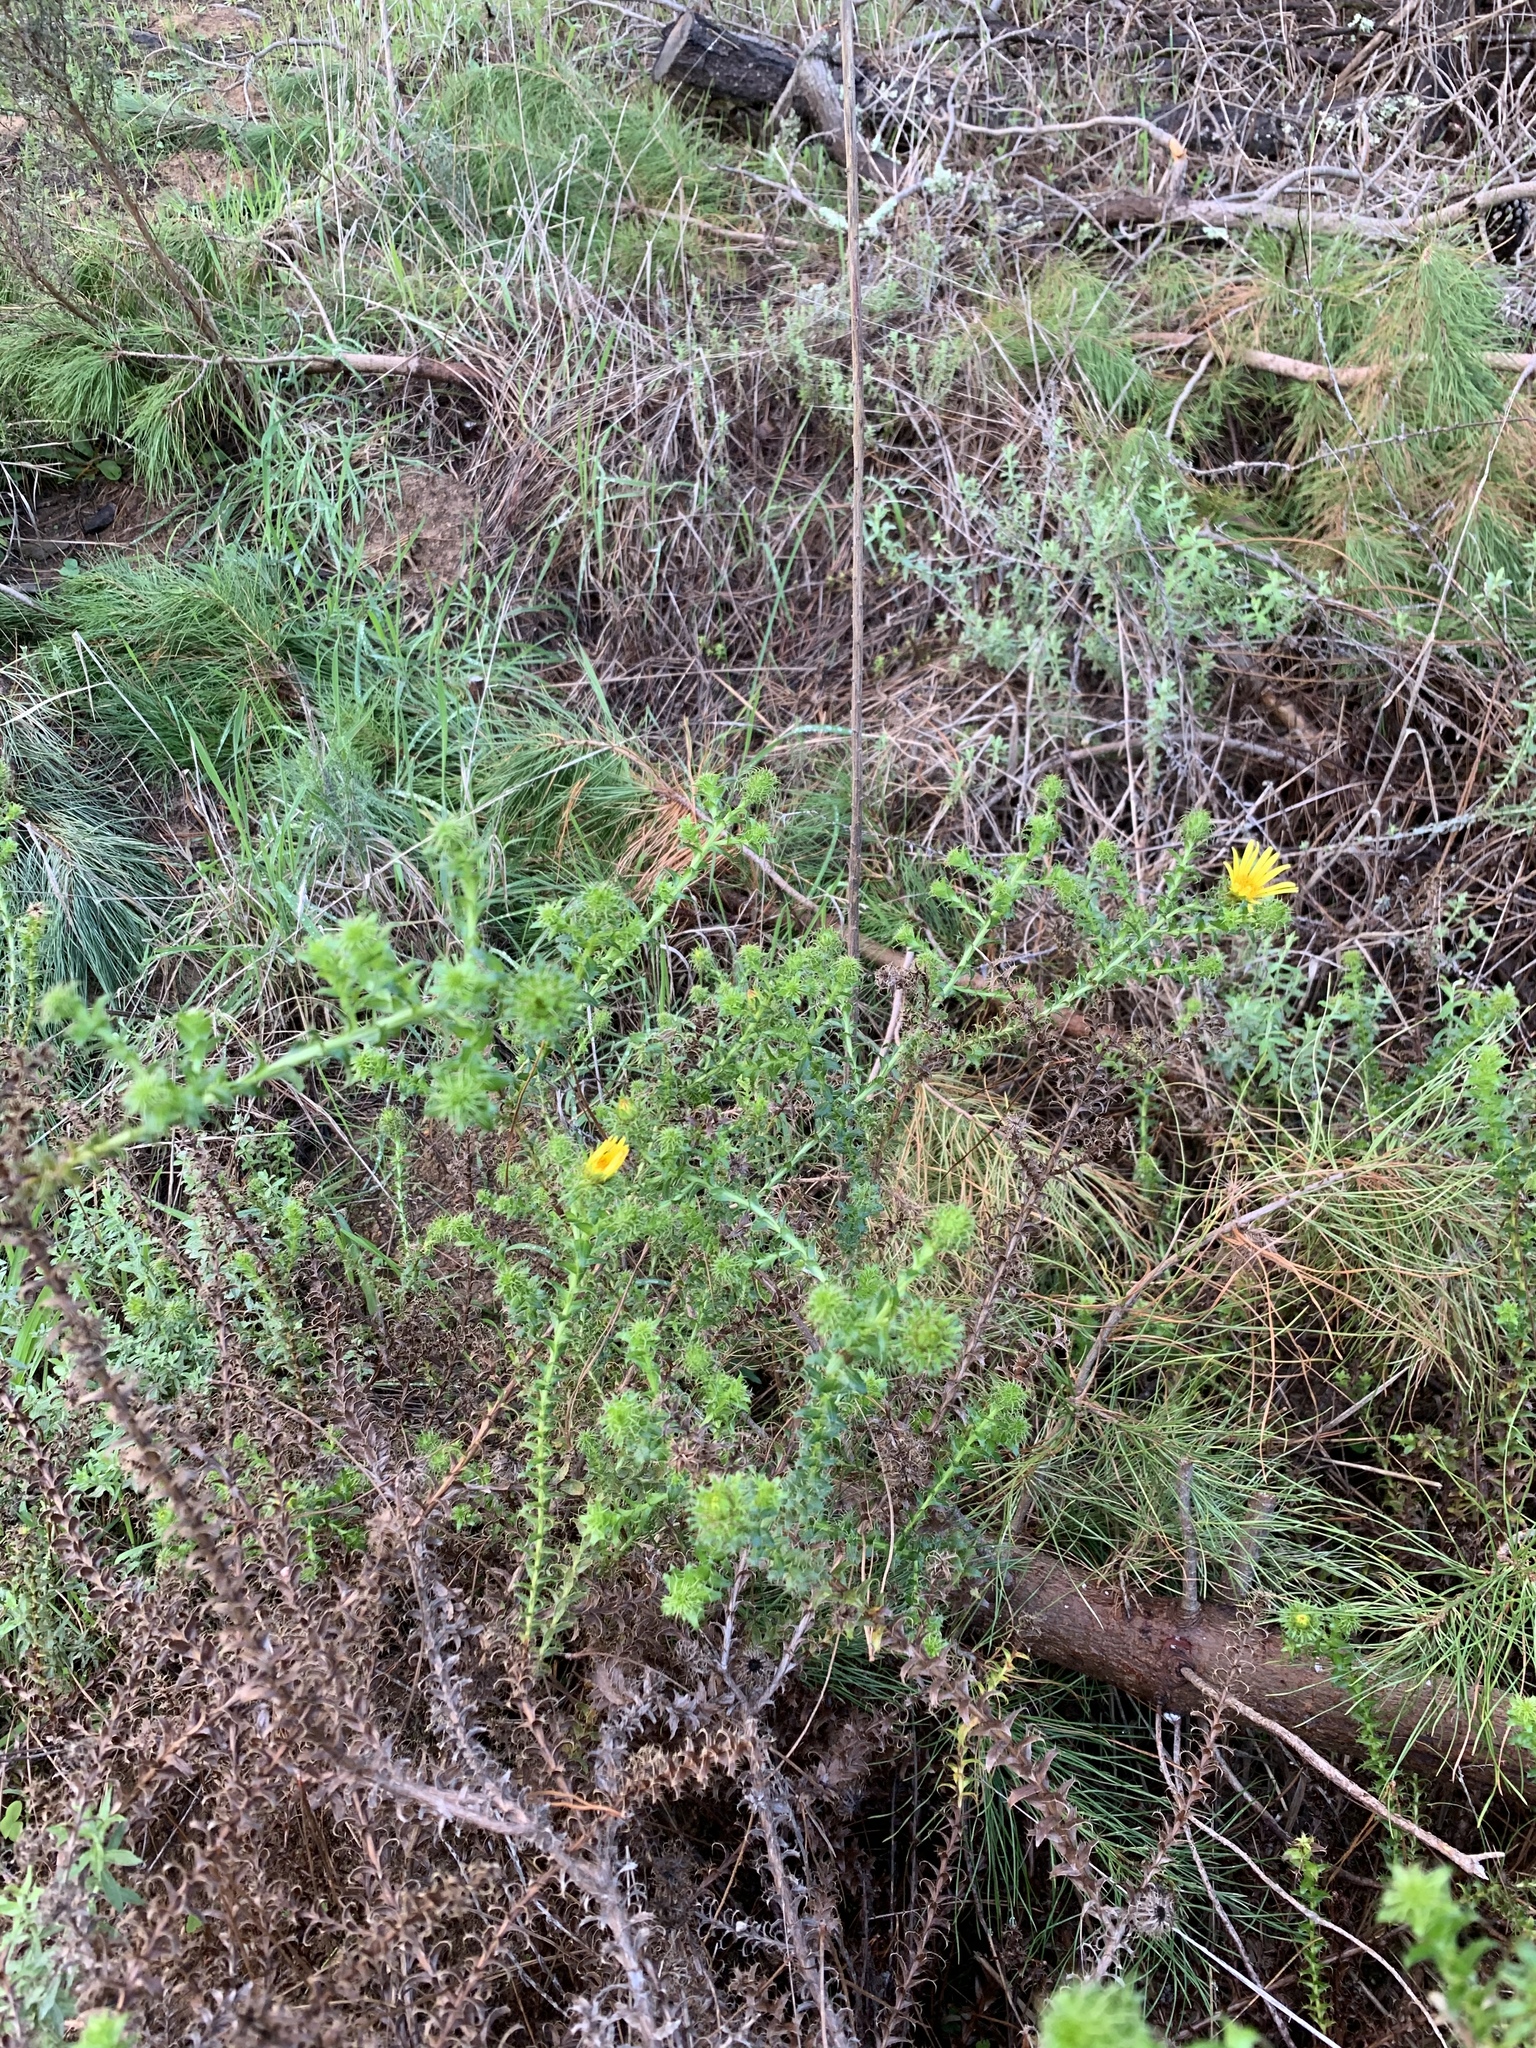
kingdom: Plantae
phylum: Tracheophyta
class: Magnoliopsida
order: Asterales
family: Asteraceae
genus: Cullumia
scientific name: Cullumia setosa
